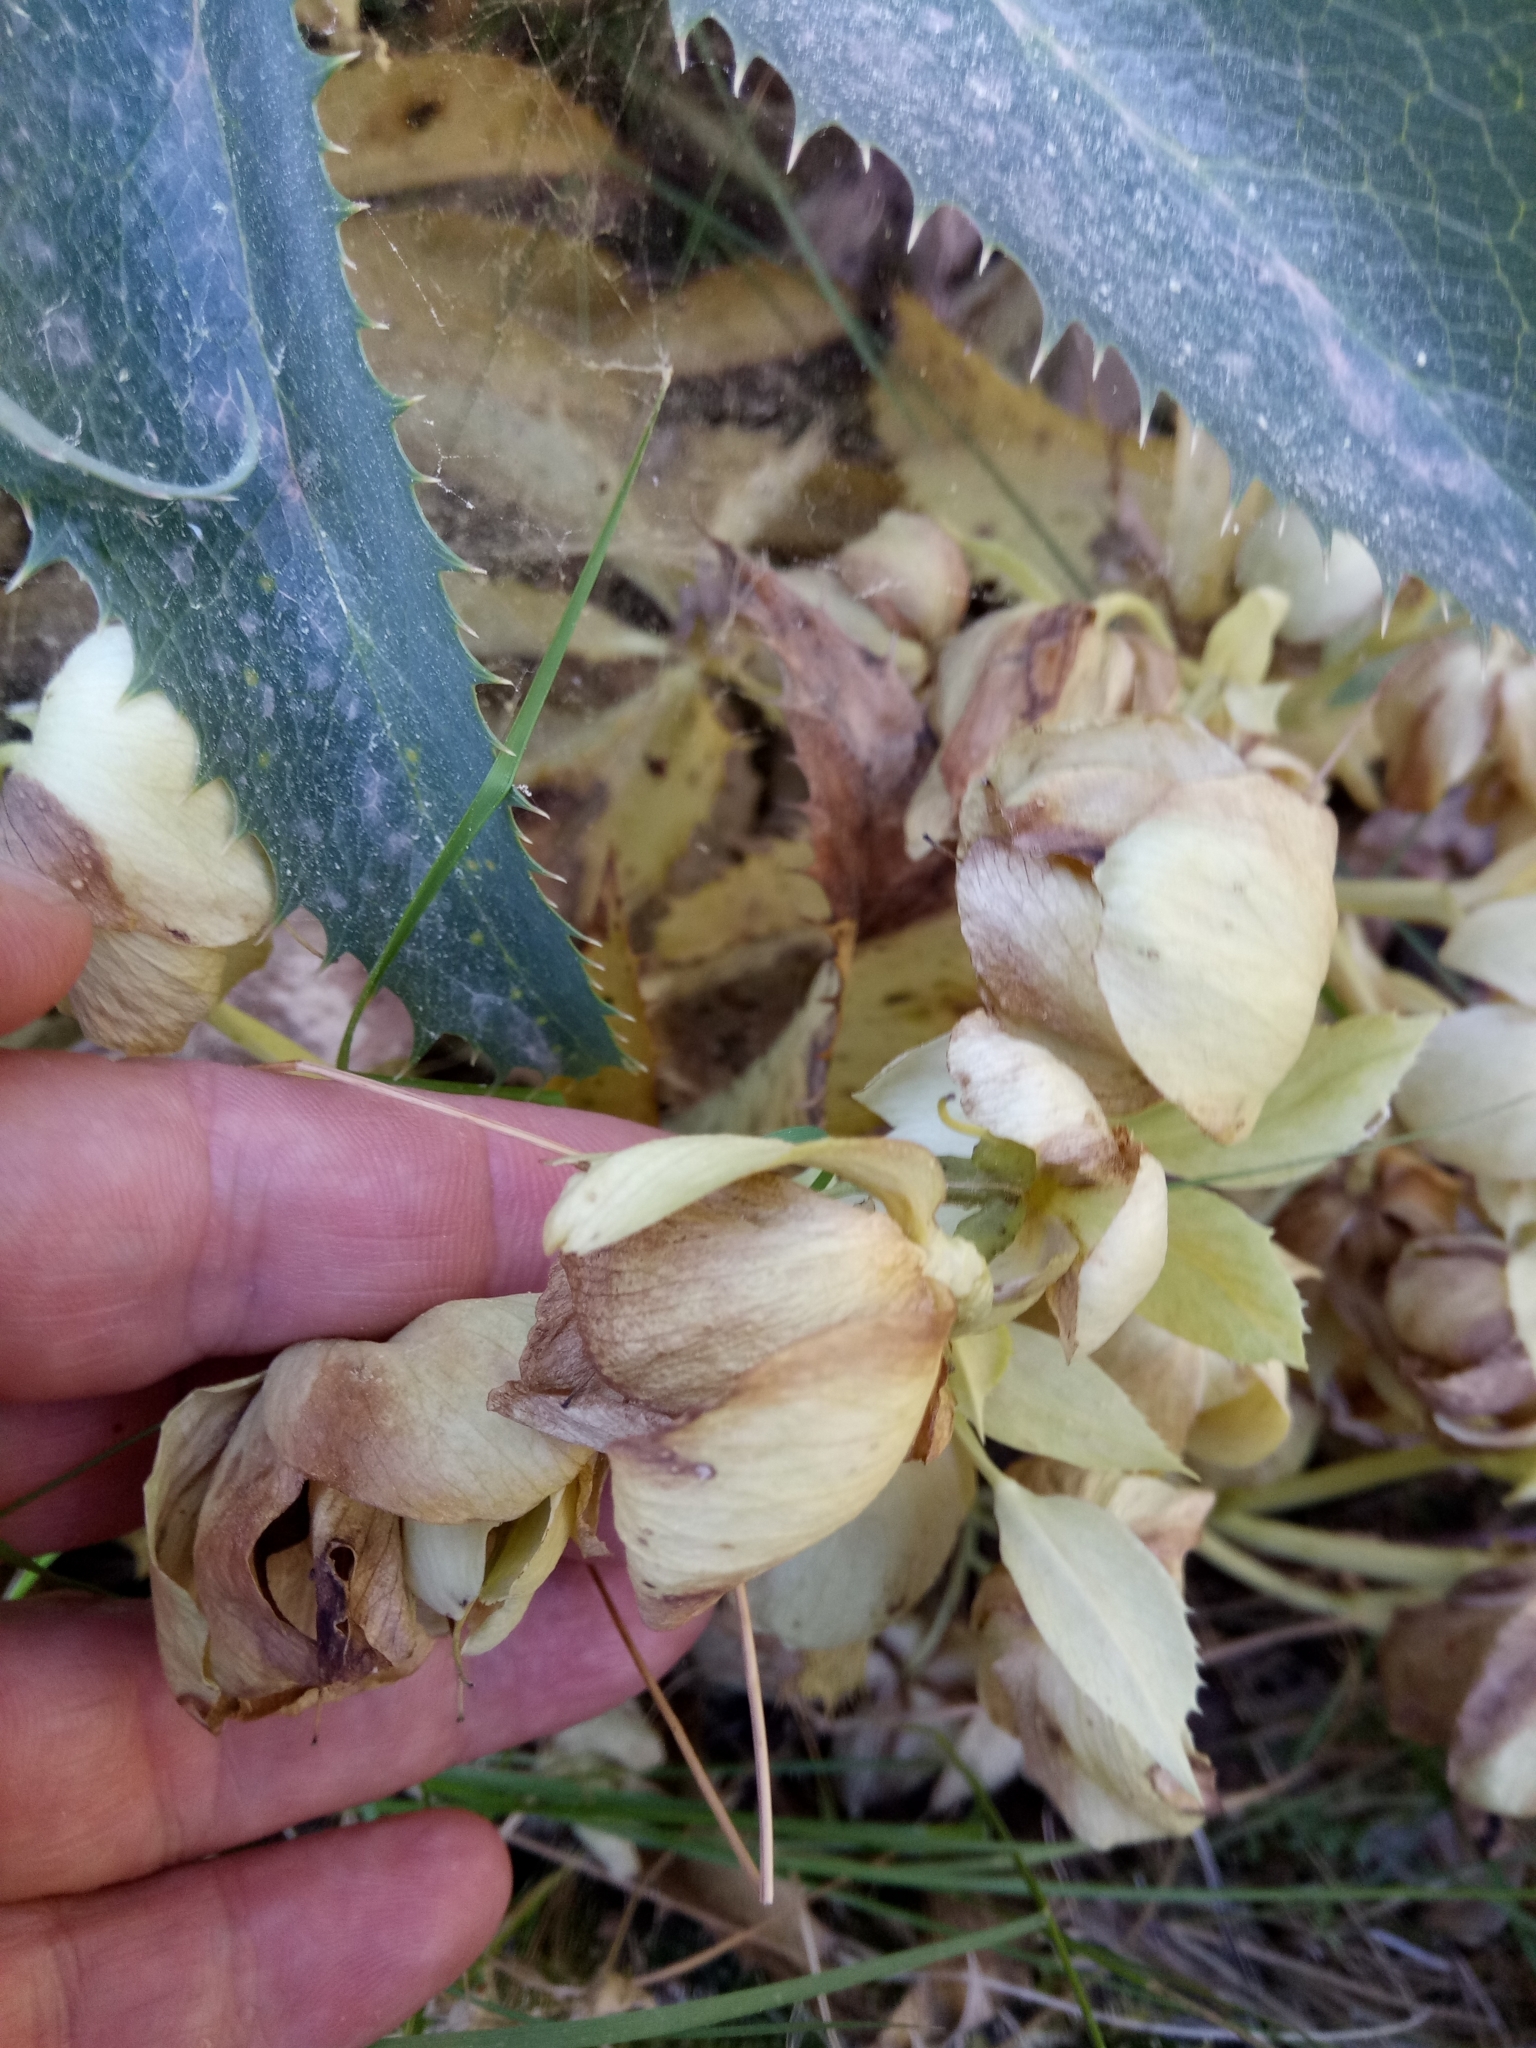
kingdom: Plantae
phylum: Tracheophyta
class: Magnoliopsida
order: Ranunculales
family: Ranunculaceae
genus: Helleborus
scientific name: Helleborus argutifolius
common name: Corsican hellebore
